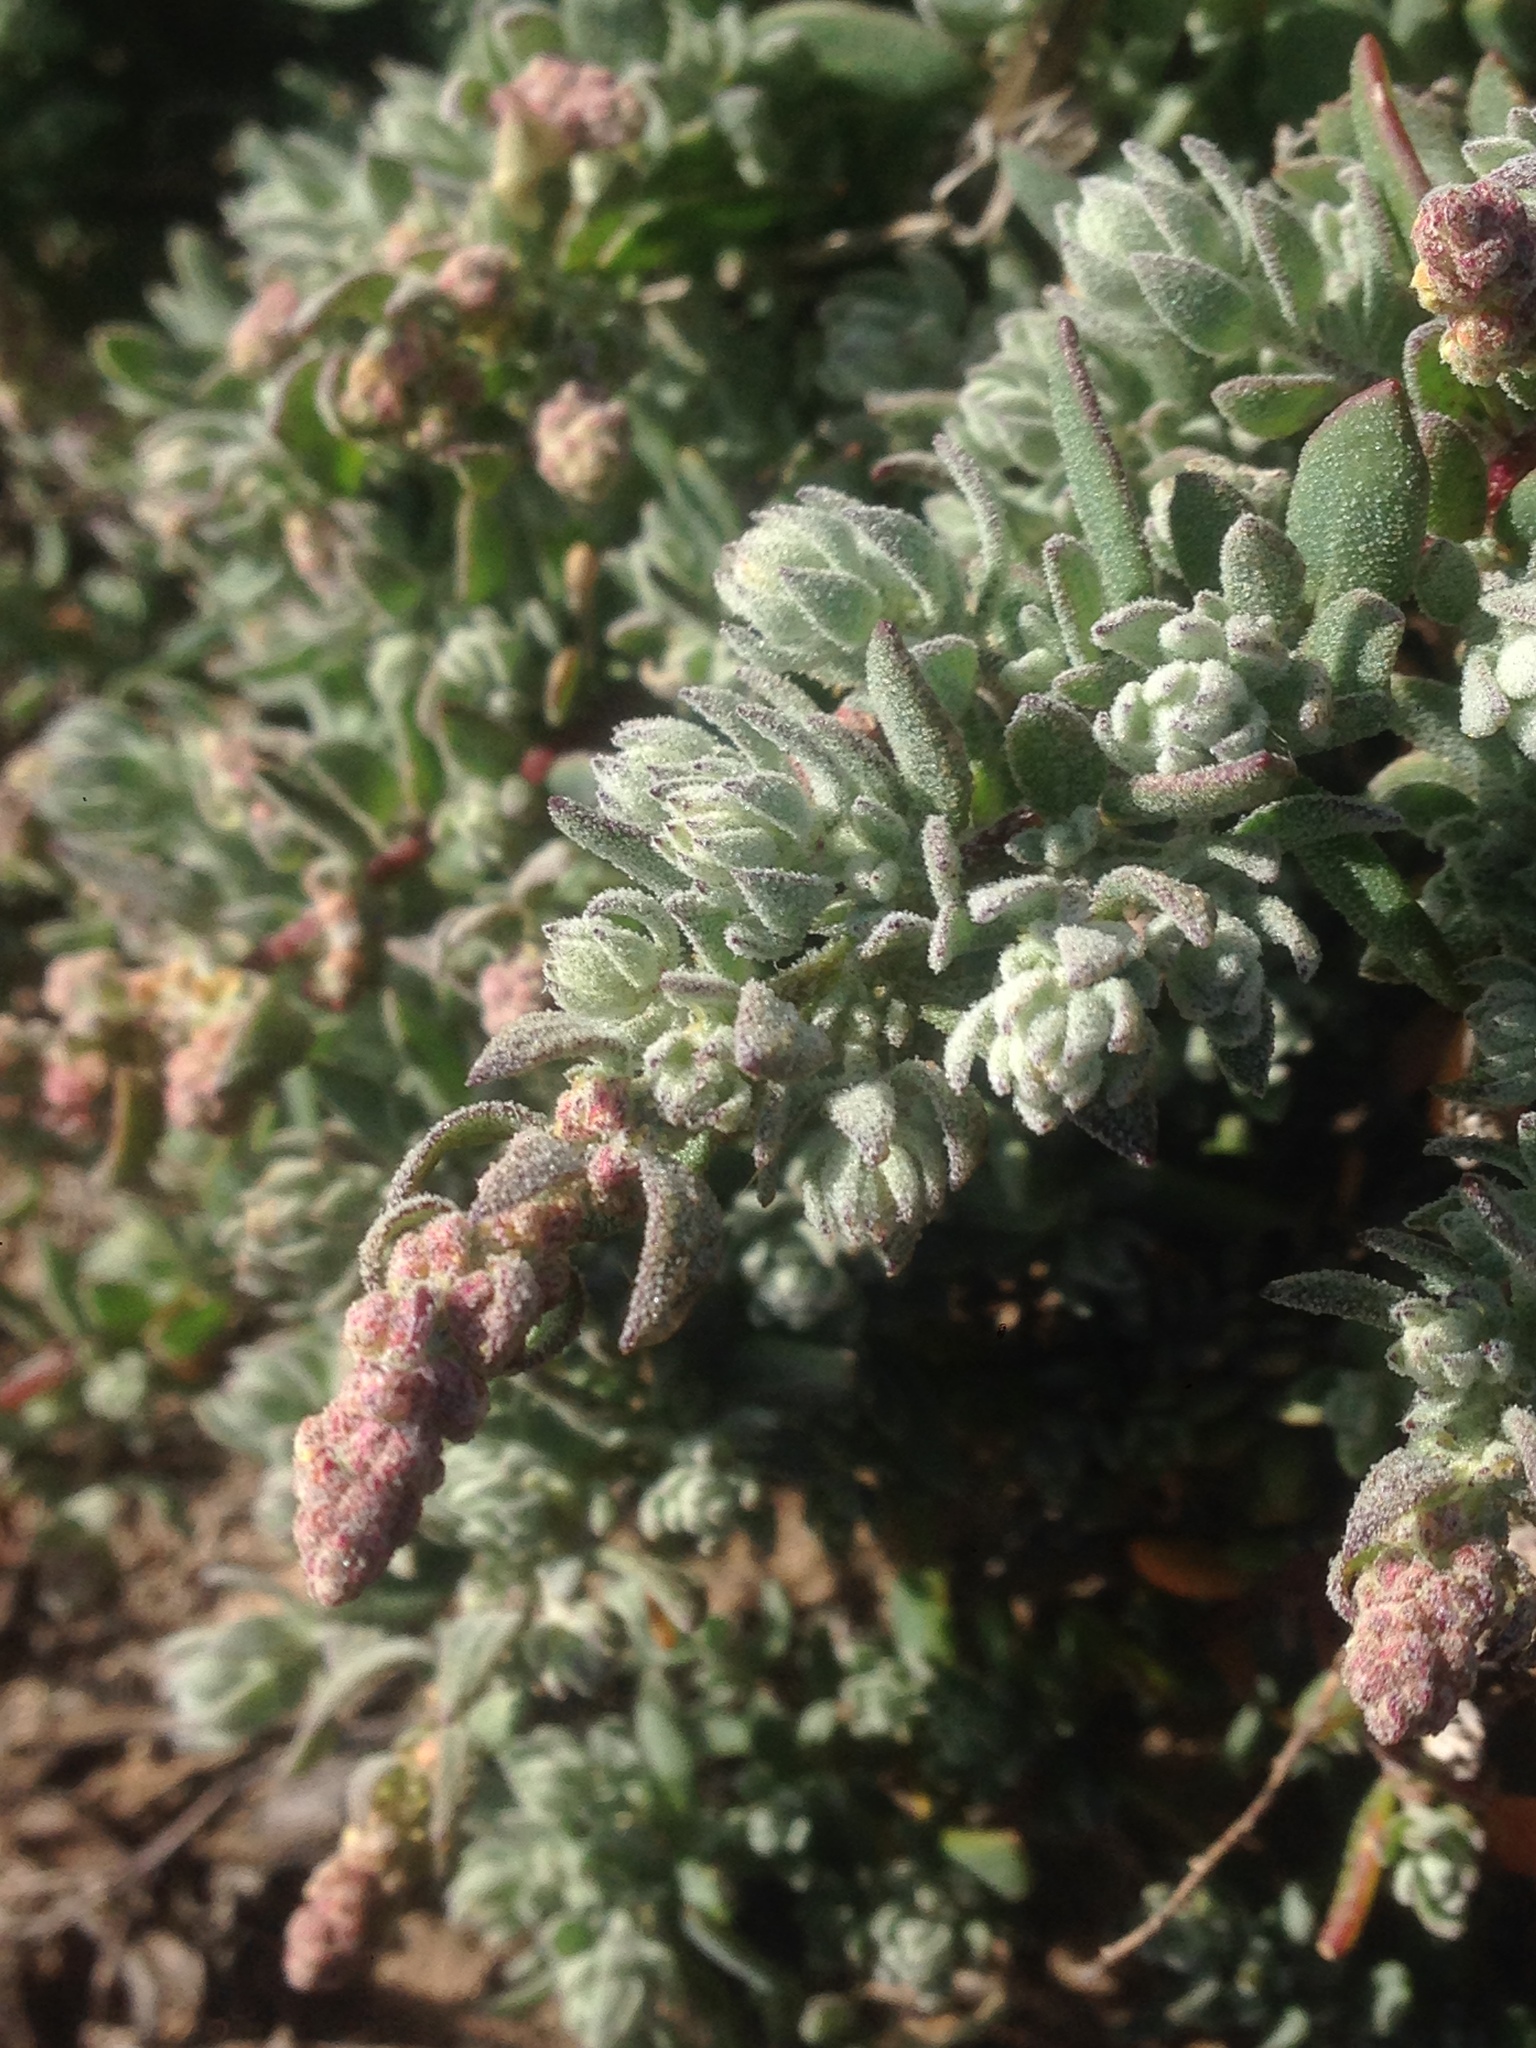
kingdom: Plantae
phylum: Tracheophyta
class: Magnoliopsida
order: Caryophyllales
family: Amaranthaceae
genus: Extriplex
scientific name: Extriplex californica
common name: California saltbush
